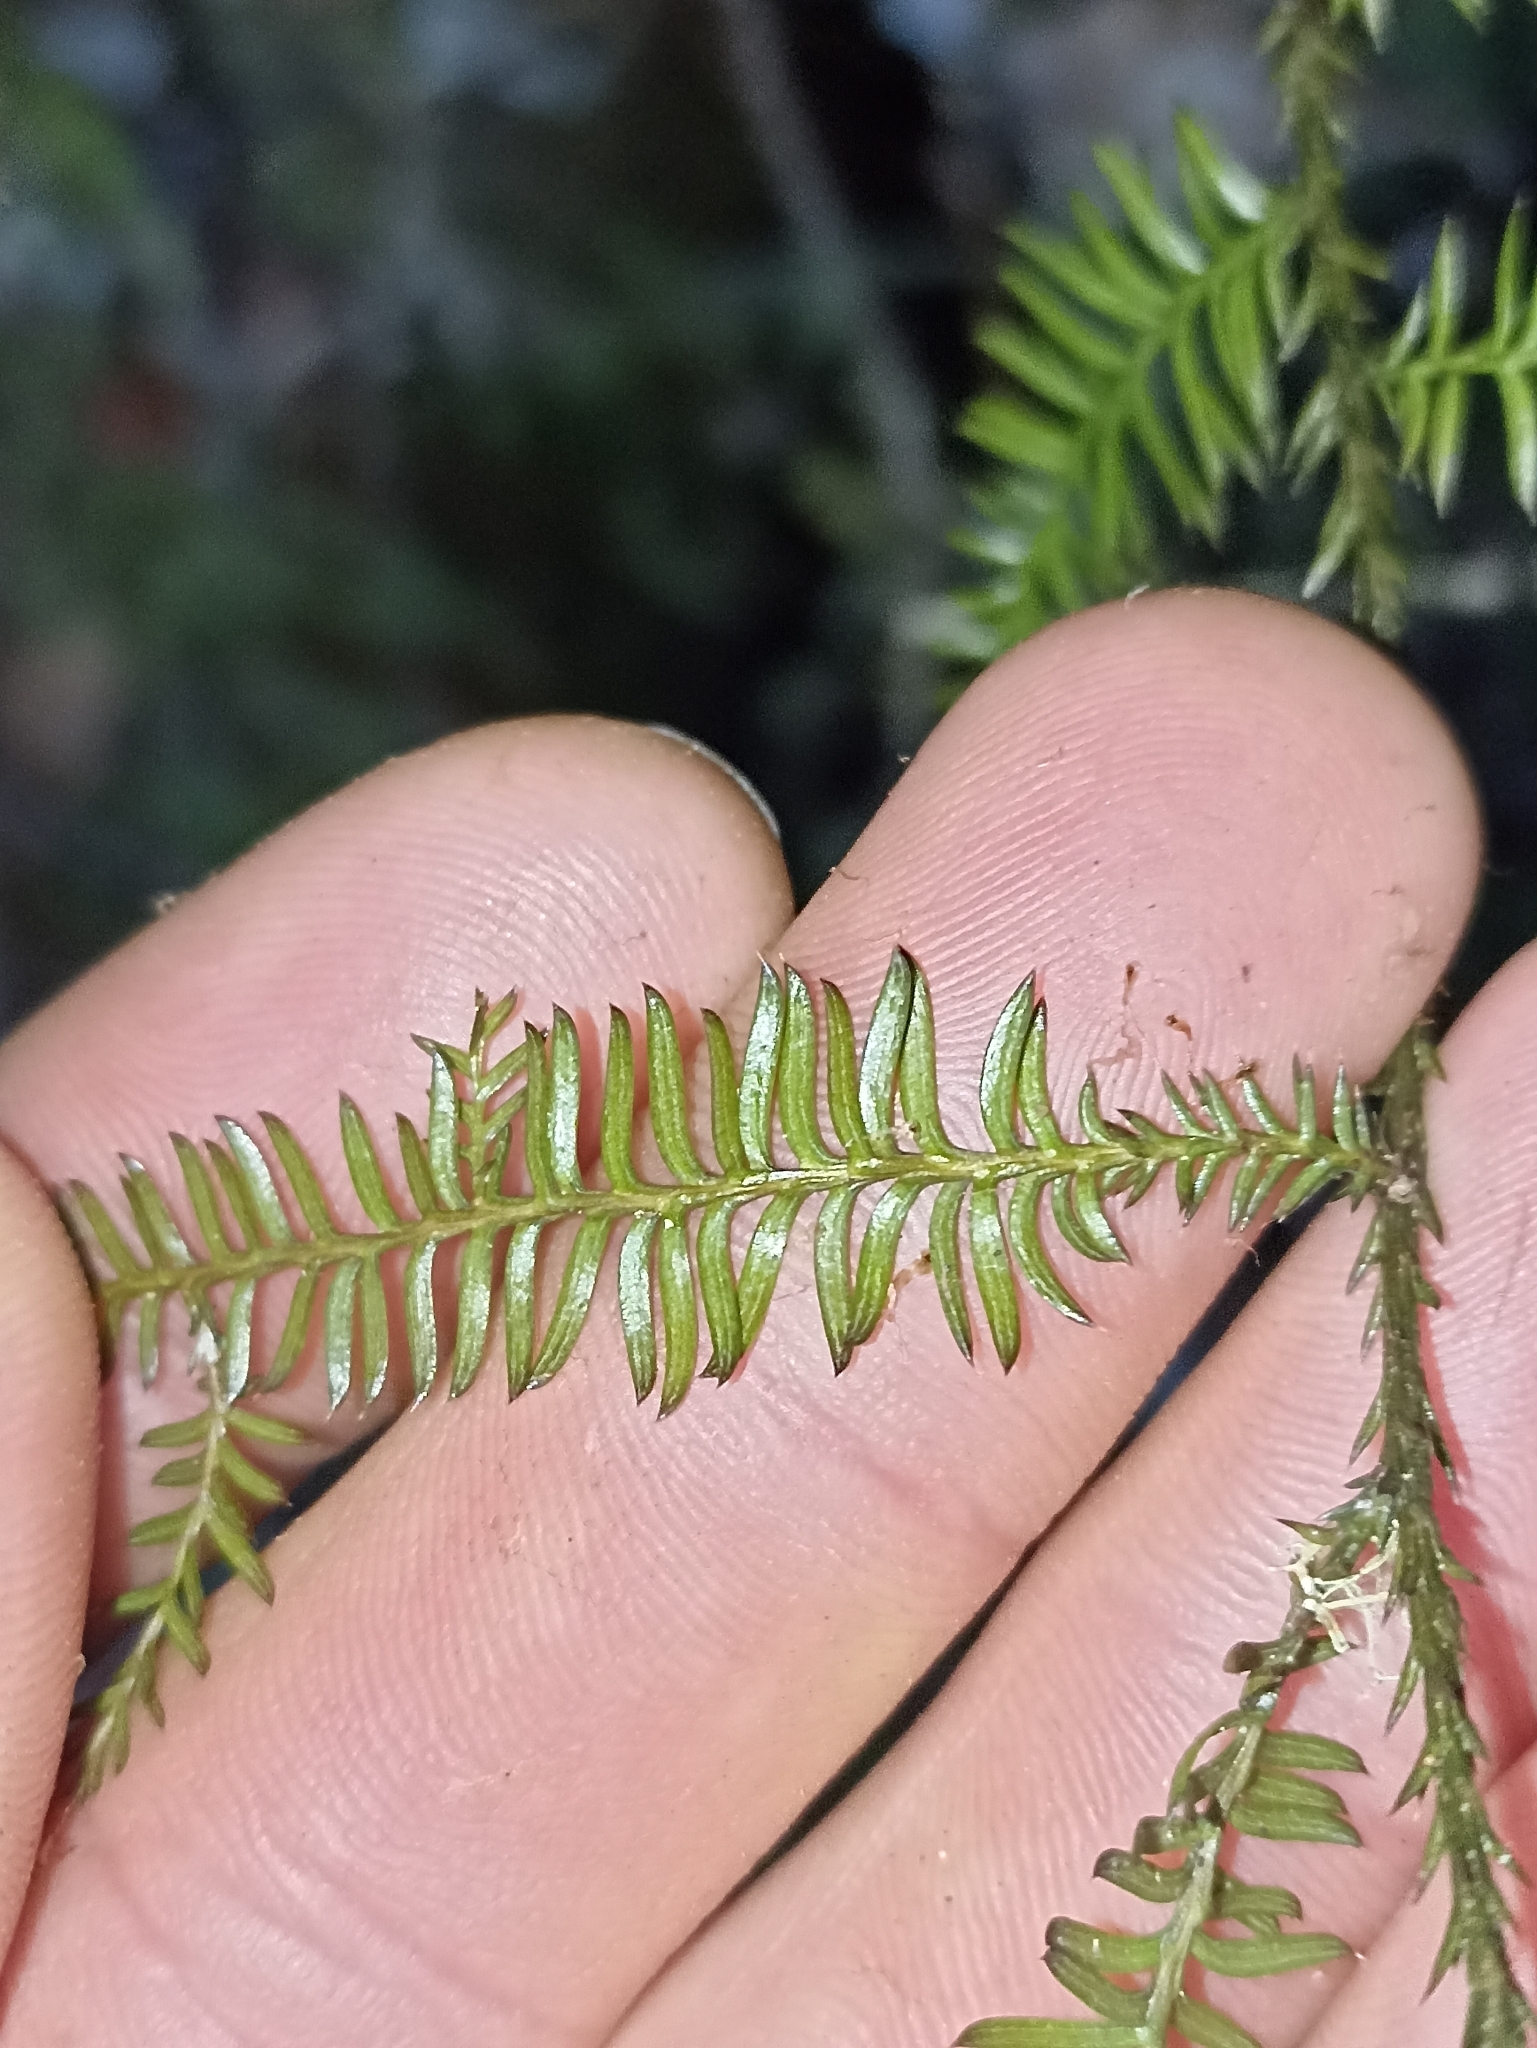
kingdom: Plantae
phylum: Tracheophyta
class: Pinopsida
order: Pinales
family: Podocarpaceae
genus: Dacrycarpus
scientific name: Dacrycarpus dacrydioides
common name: White pine
